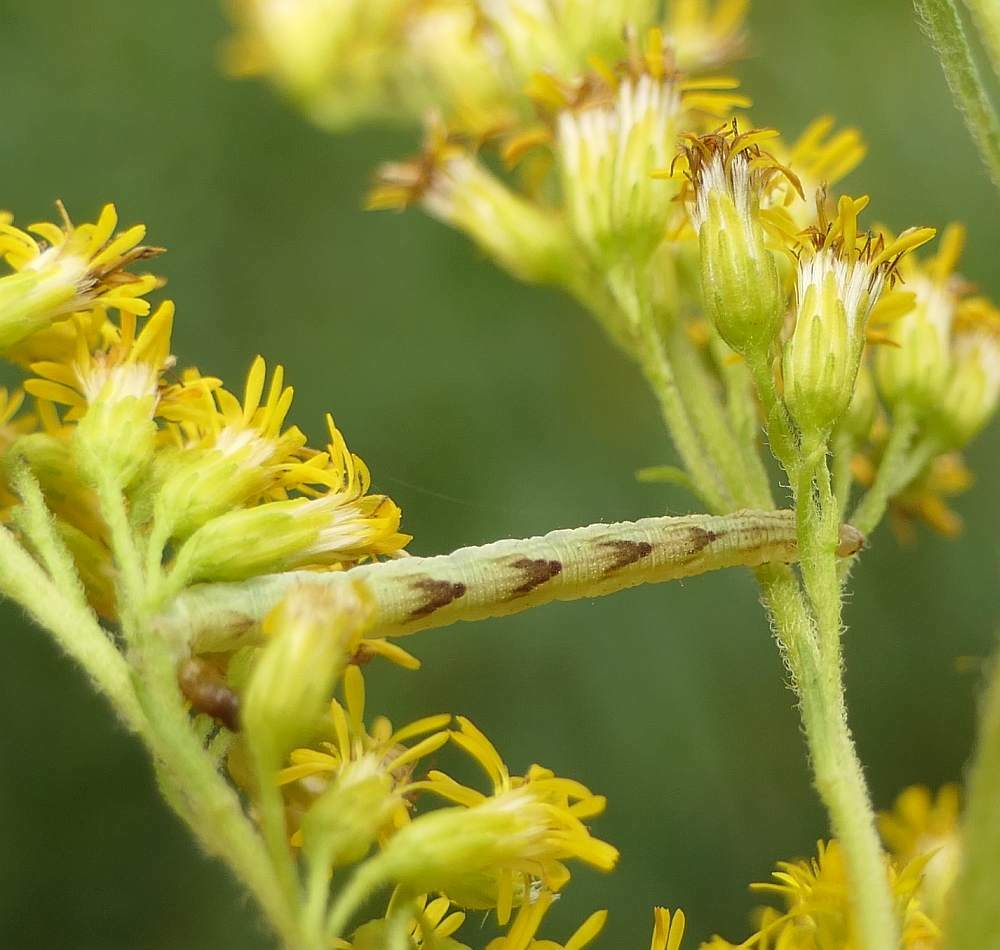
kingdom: Animalia
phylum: Arthropoda
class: Insecta
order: Lepidoptera
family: Geometridae
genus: Eupithecia
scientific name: Eupithecia miserulata
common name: Common eupithecia
